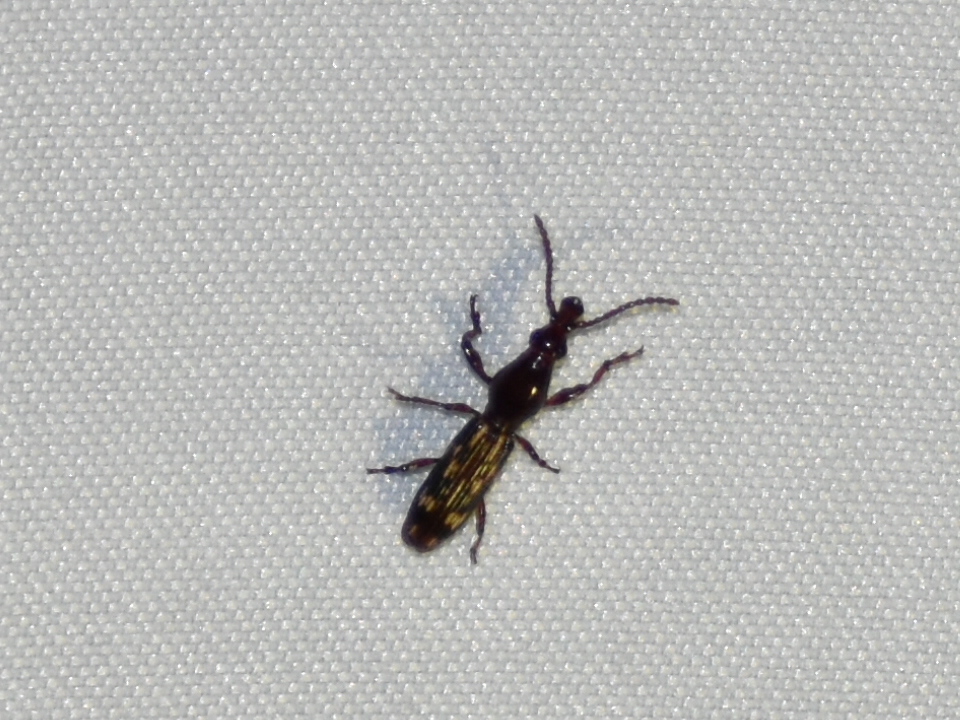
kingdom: Animalia
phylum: Arthropoda
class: Insecta
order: Coleoptera
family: Brentidae
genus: Arrenodes
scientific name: Arrenodes minutus
